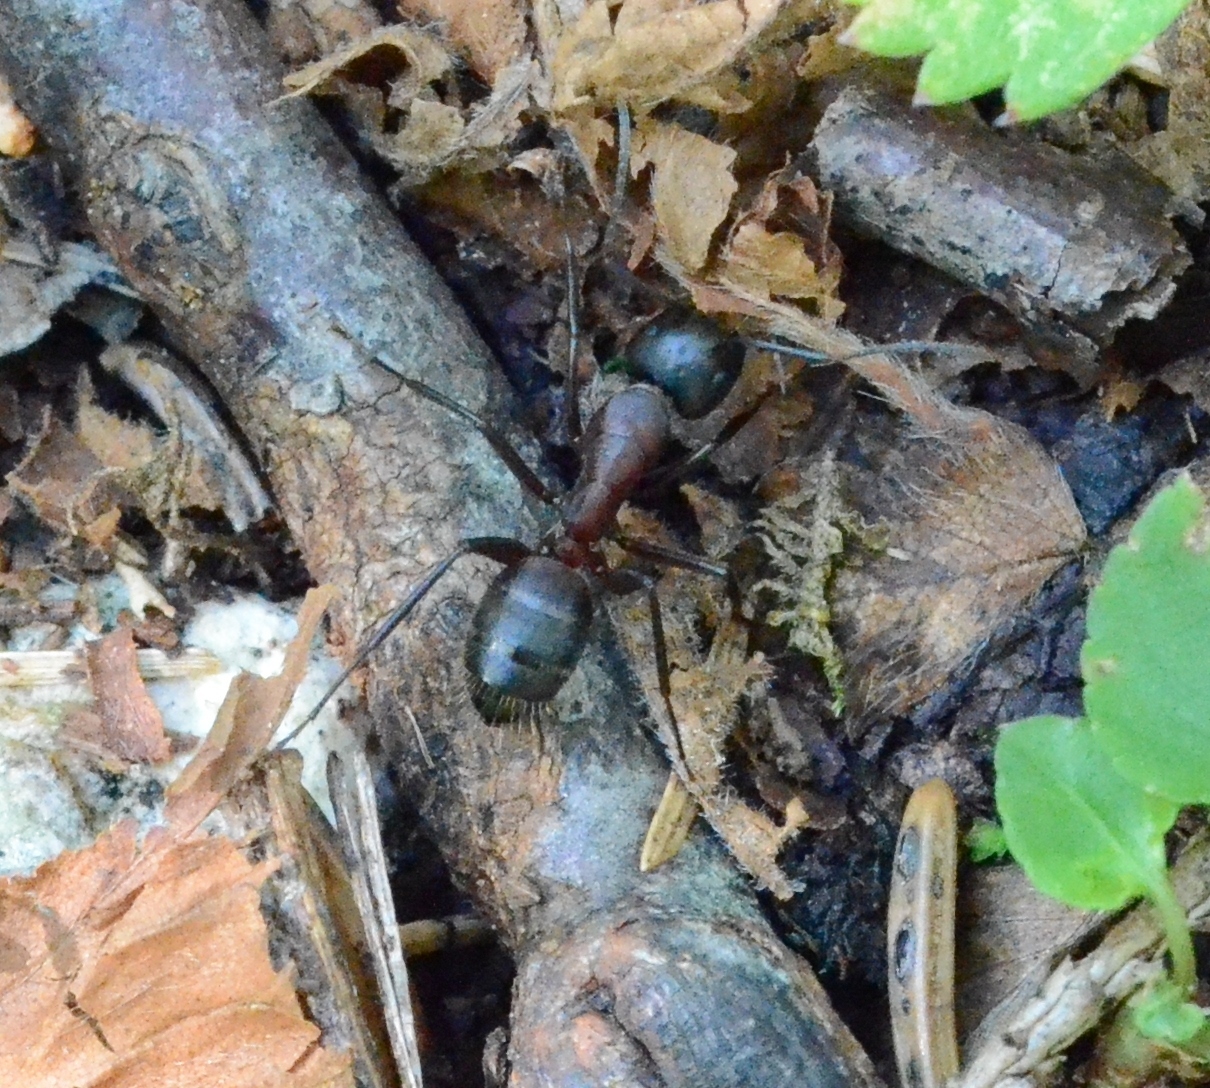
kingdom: Animalia
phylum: Arthropoda
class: Insecta
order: Hymenoptera
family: Formicidae
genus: Camponotus
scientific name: Camponotus ligniperdus
